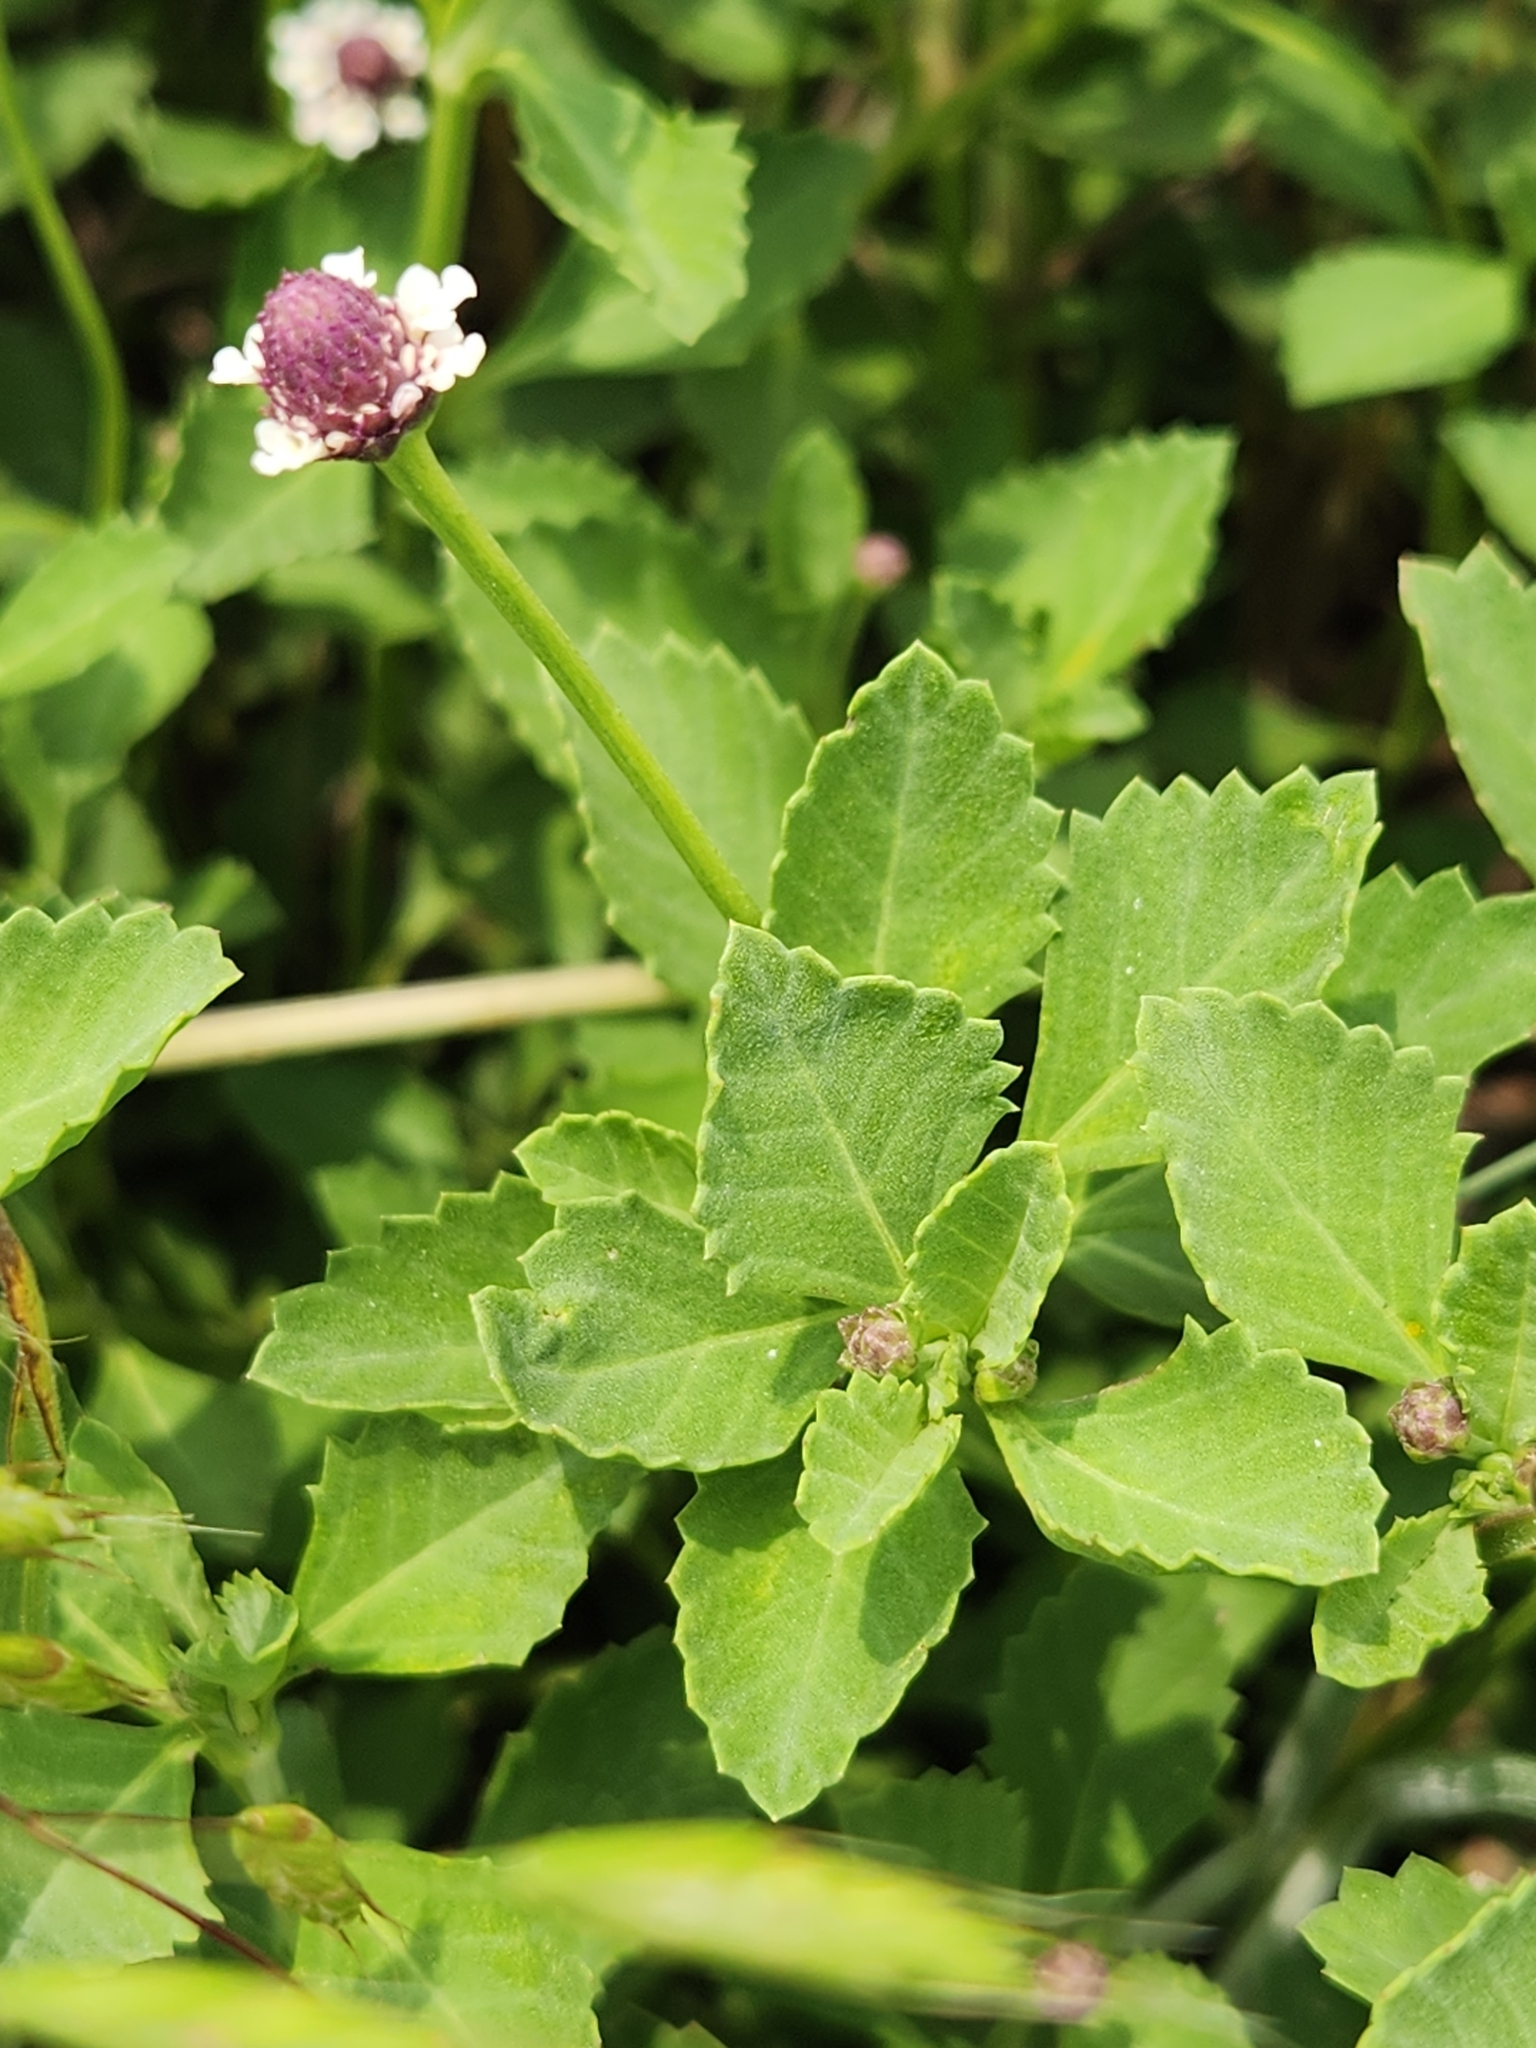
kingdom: Plantae
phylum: Tracheophyta
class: Magnoliopsida
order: Lamiales
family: Verbenaceae
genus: Phyla
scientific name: Phyla nodiflora
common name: Frogfruit
